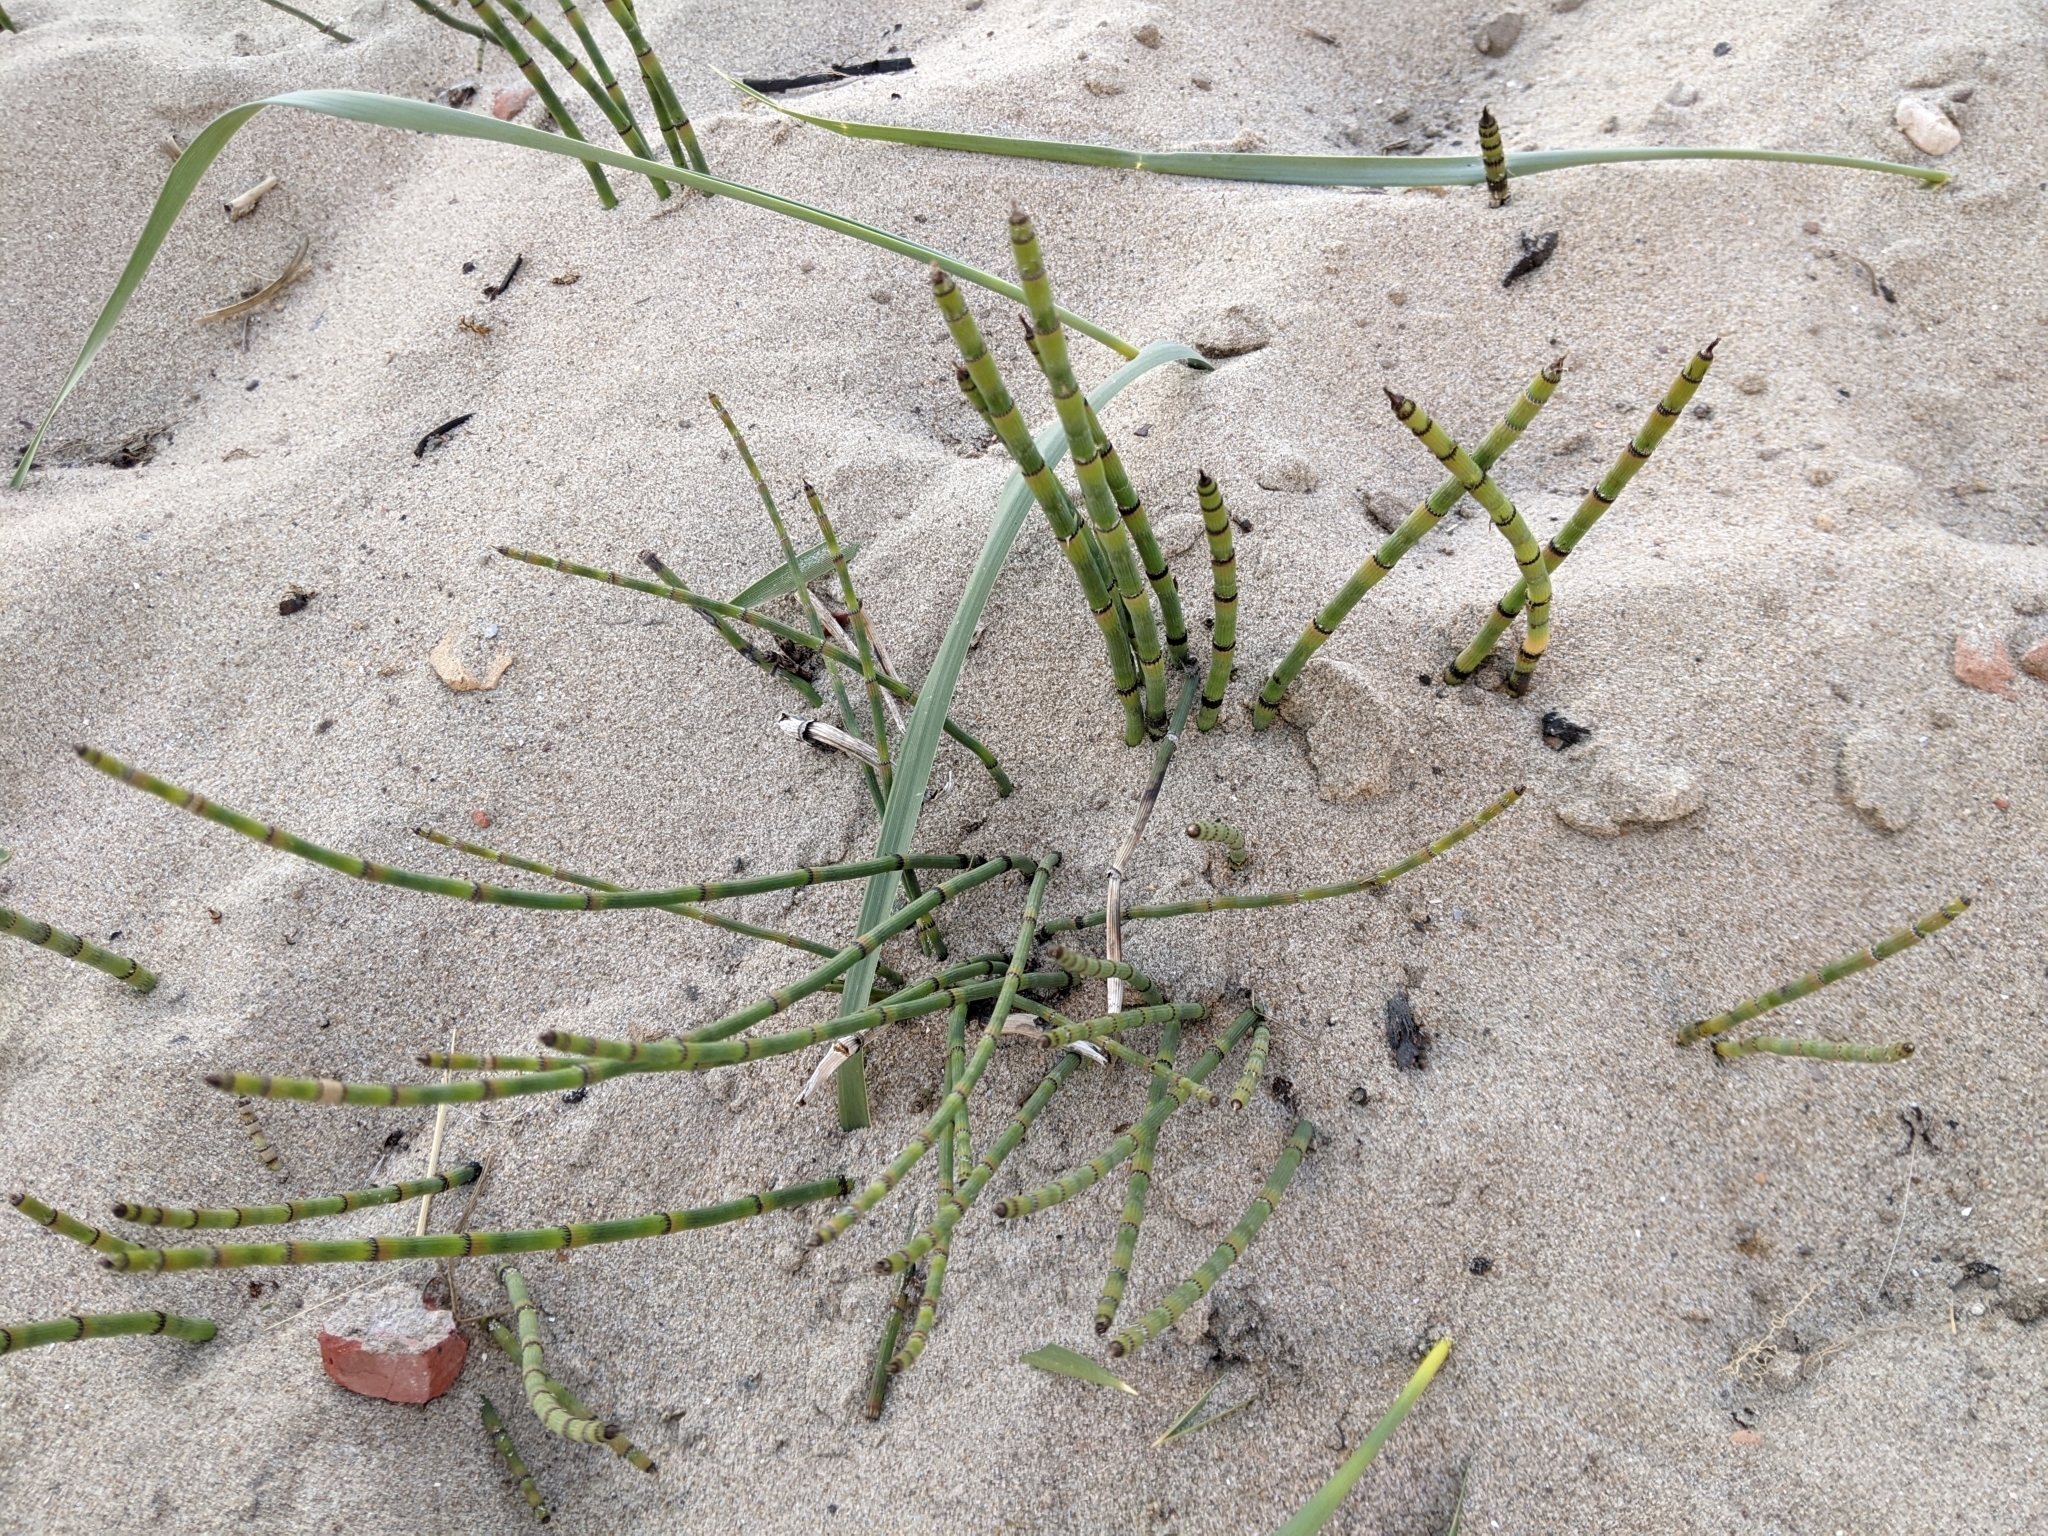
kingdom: Plantae
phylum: Tracheophyta
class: Polypodiopsida
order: Equisetales
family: Equisetaceae
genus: Equisetum
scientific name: Equisetum hyemale
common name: Rough horsetail
